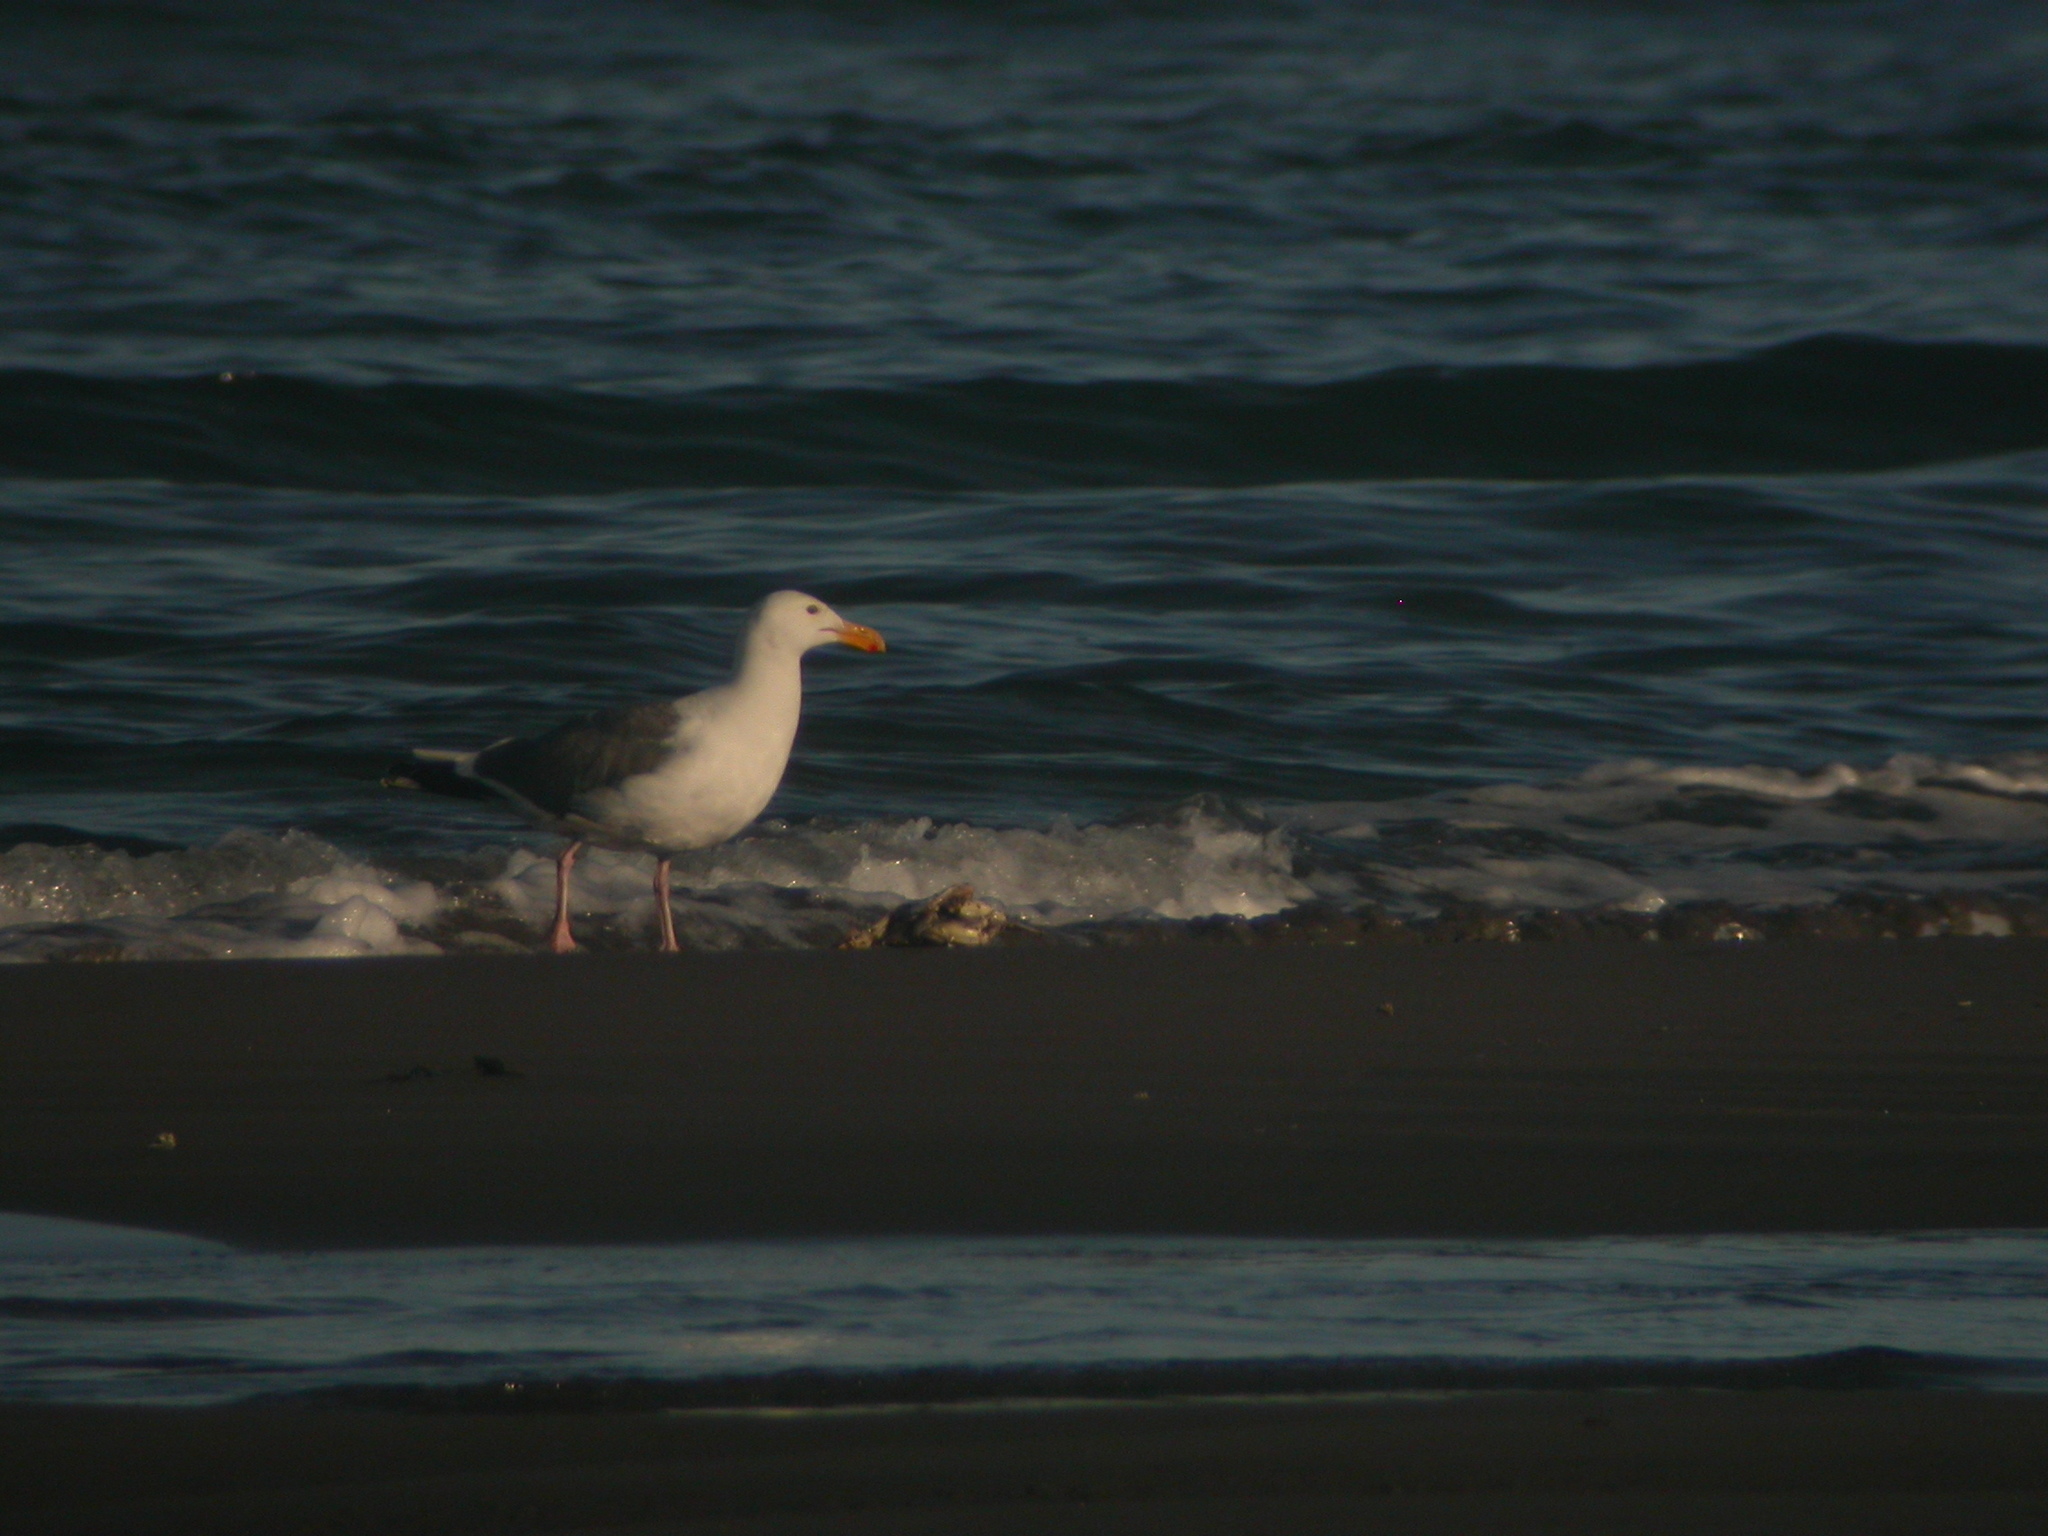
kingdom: Animalia
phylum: Chordata
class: Aves
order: Charadriiformes
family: Laridae
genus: Larus
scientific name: Larus occidentalis
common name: Western gull
